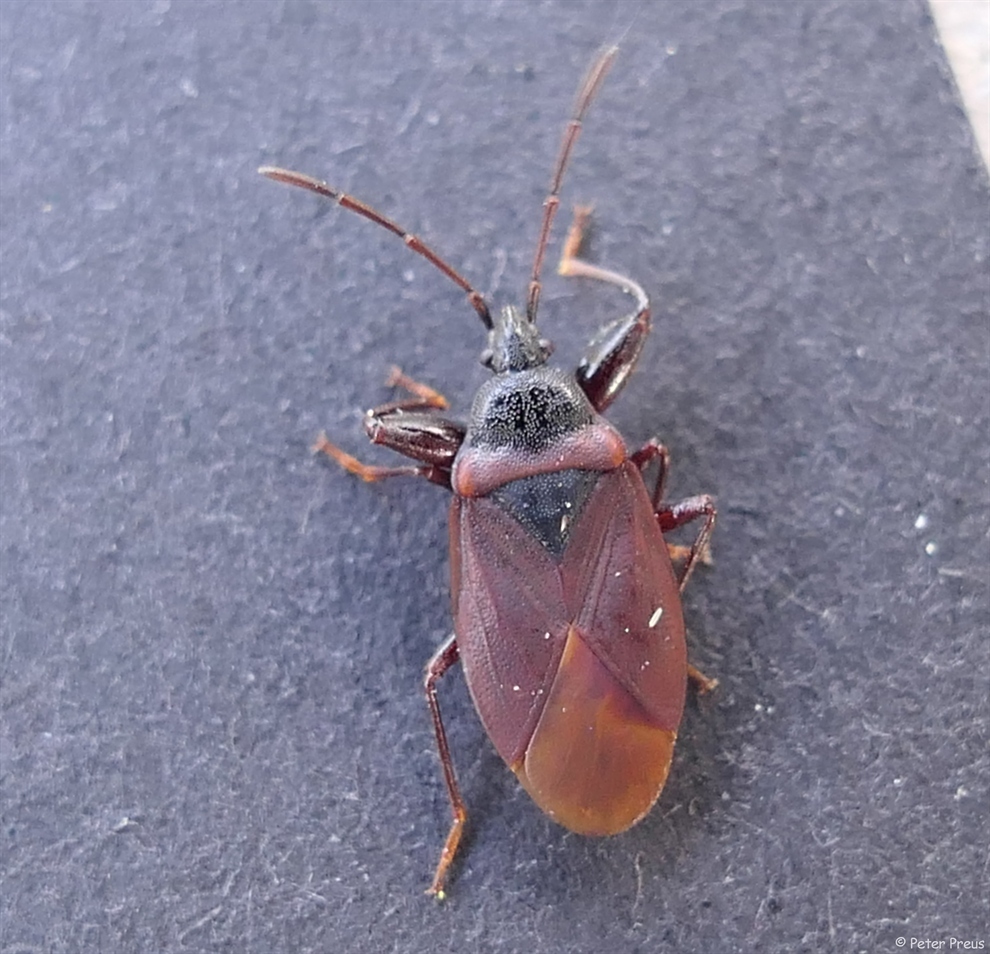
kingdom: Animalia
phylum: Arthropoda
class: Insecta
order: Hemiptera
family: Rhyparochromidae
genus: Gastrodes
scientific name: Gastrodes grossipes
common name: Pine cone bug
